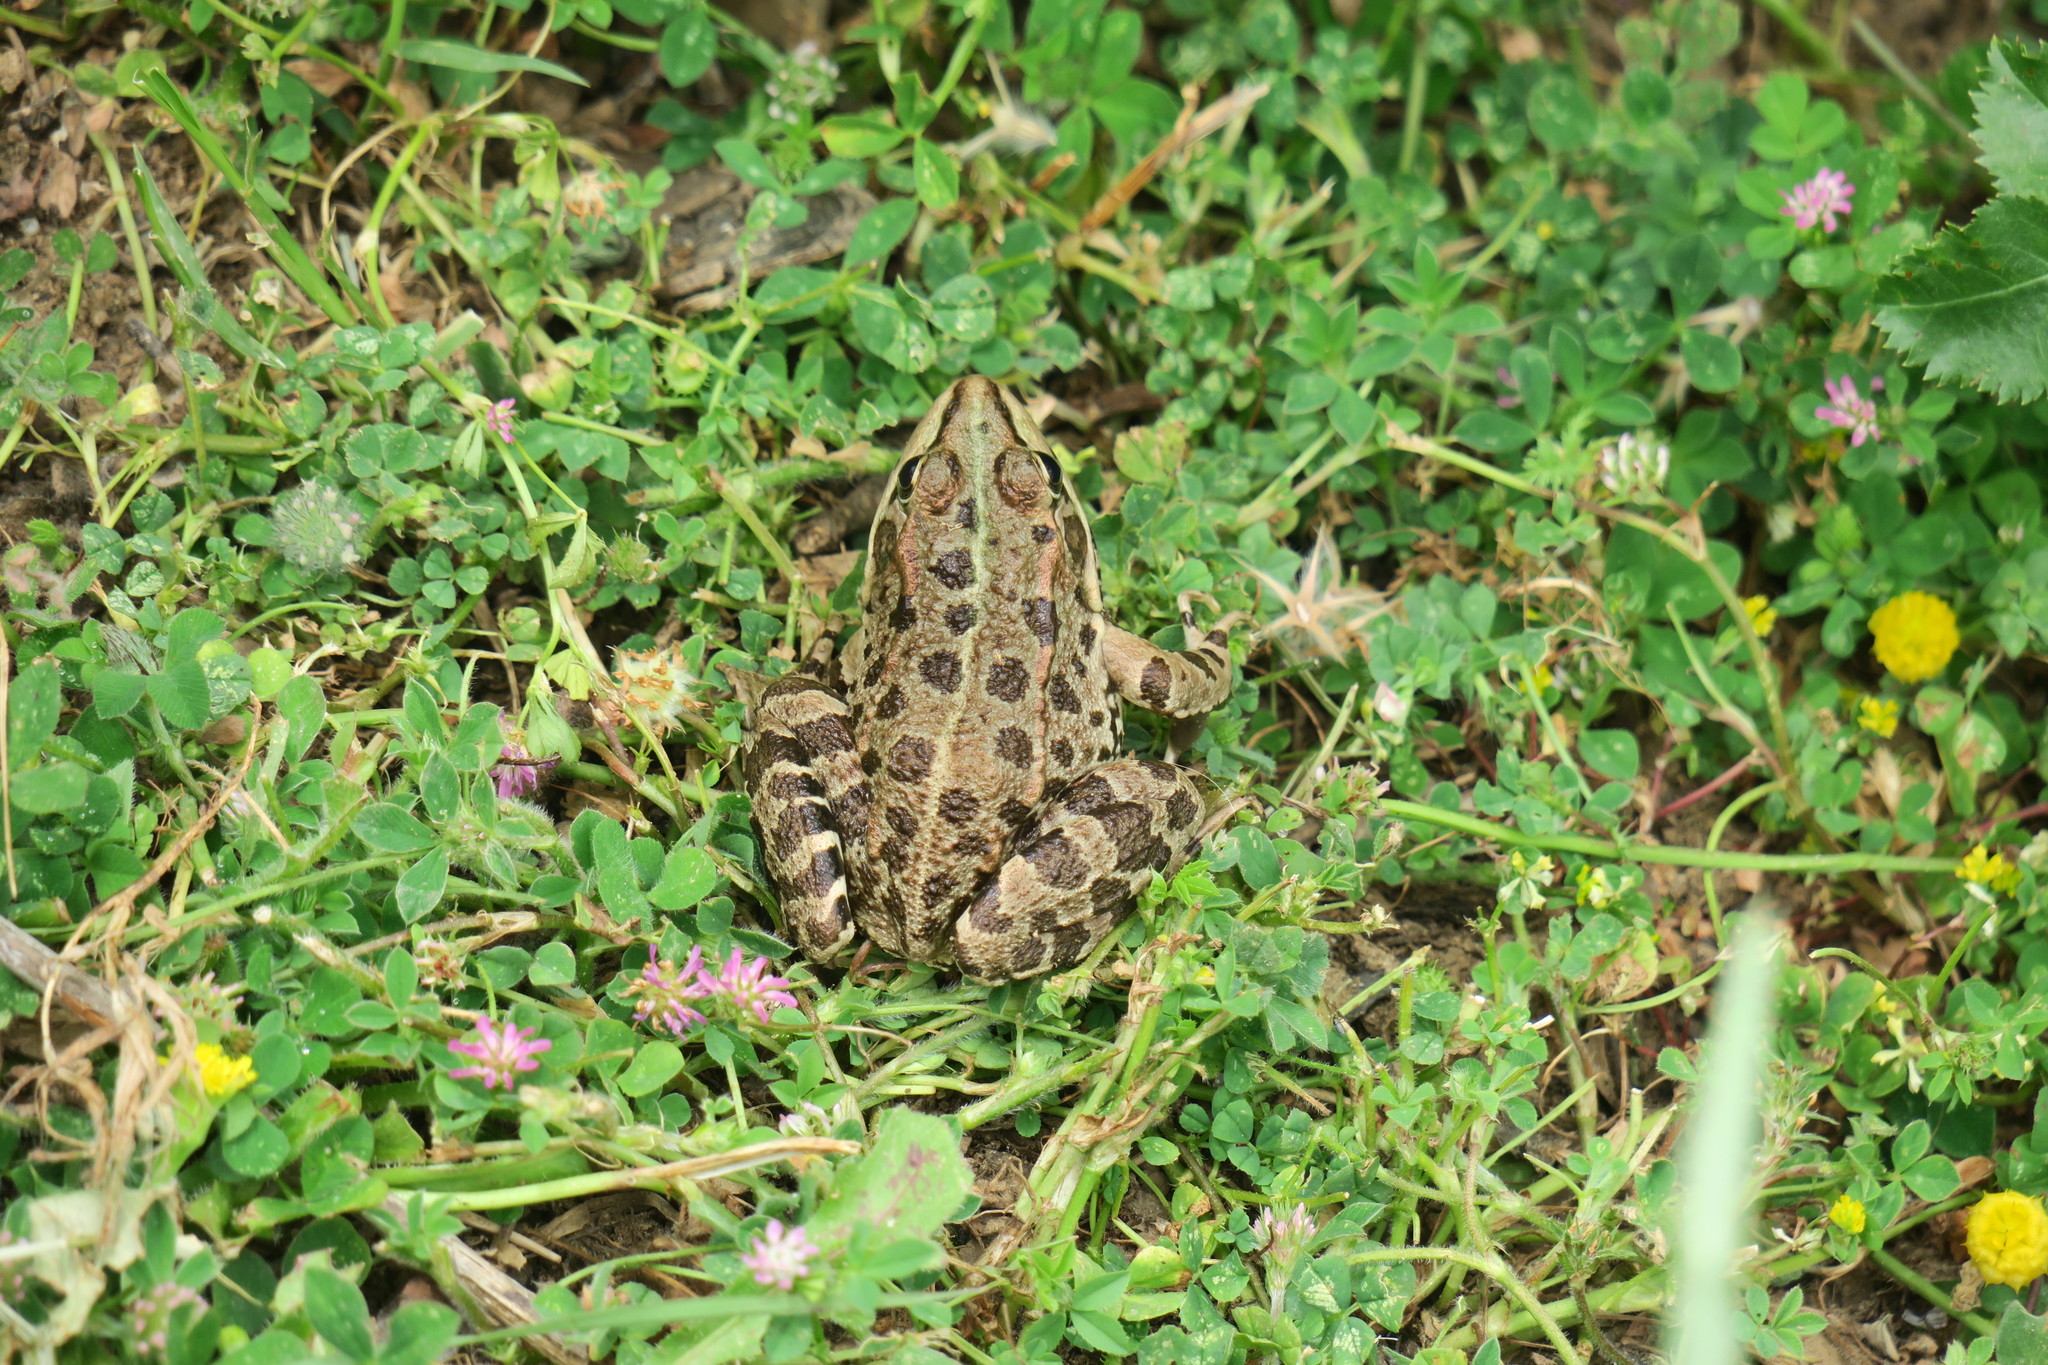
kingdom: Animalia
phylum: Chordata
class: Amphibia
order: Anura
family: Ranidae
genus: Pelophylax
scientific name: Pelophylax perezi
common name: Perez's frog
